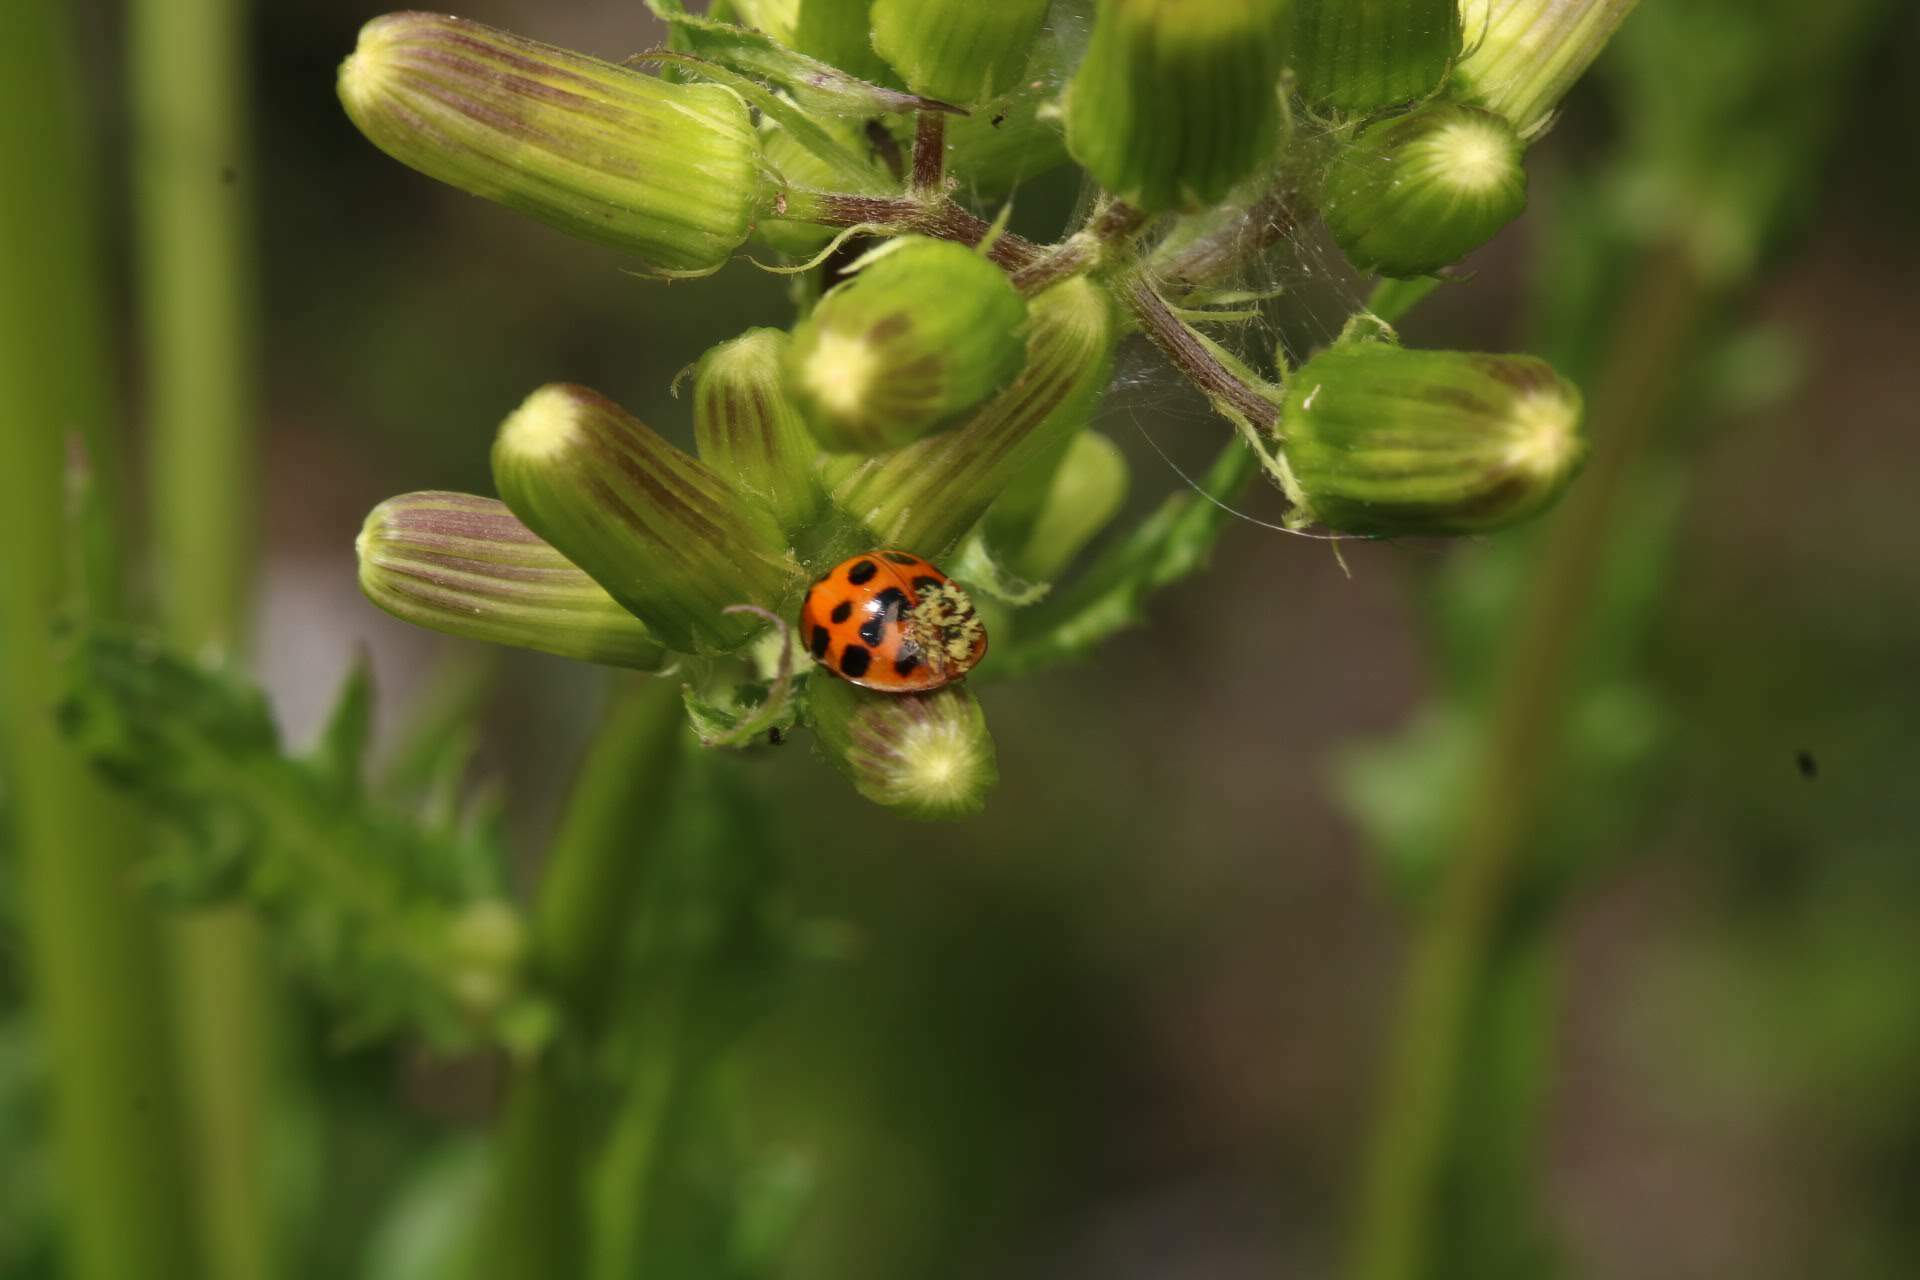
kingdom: Fungi
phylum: Ascomycota
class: Laboulbeniomycetes
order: Laboulbeniales
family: Laboulbeniaceae
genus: Hesperomyces
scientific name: Hesperomyces harmoniae
